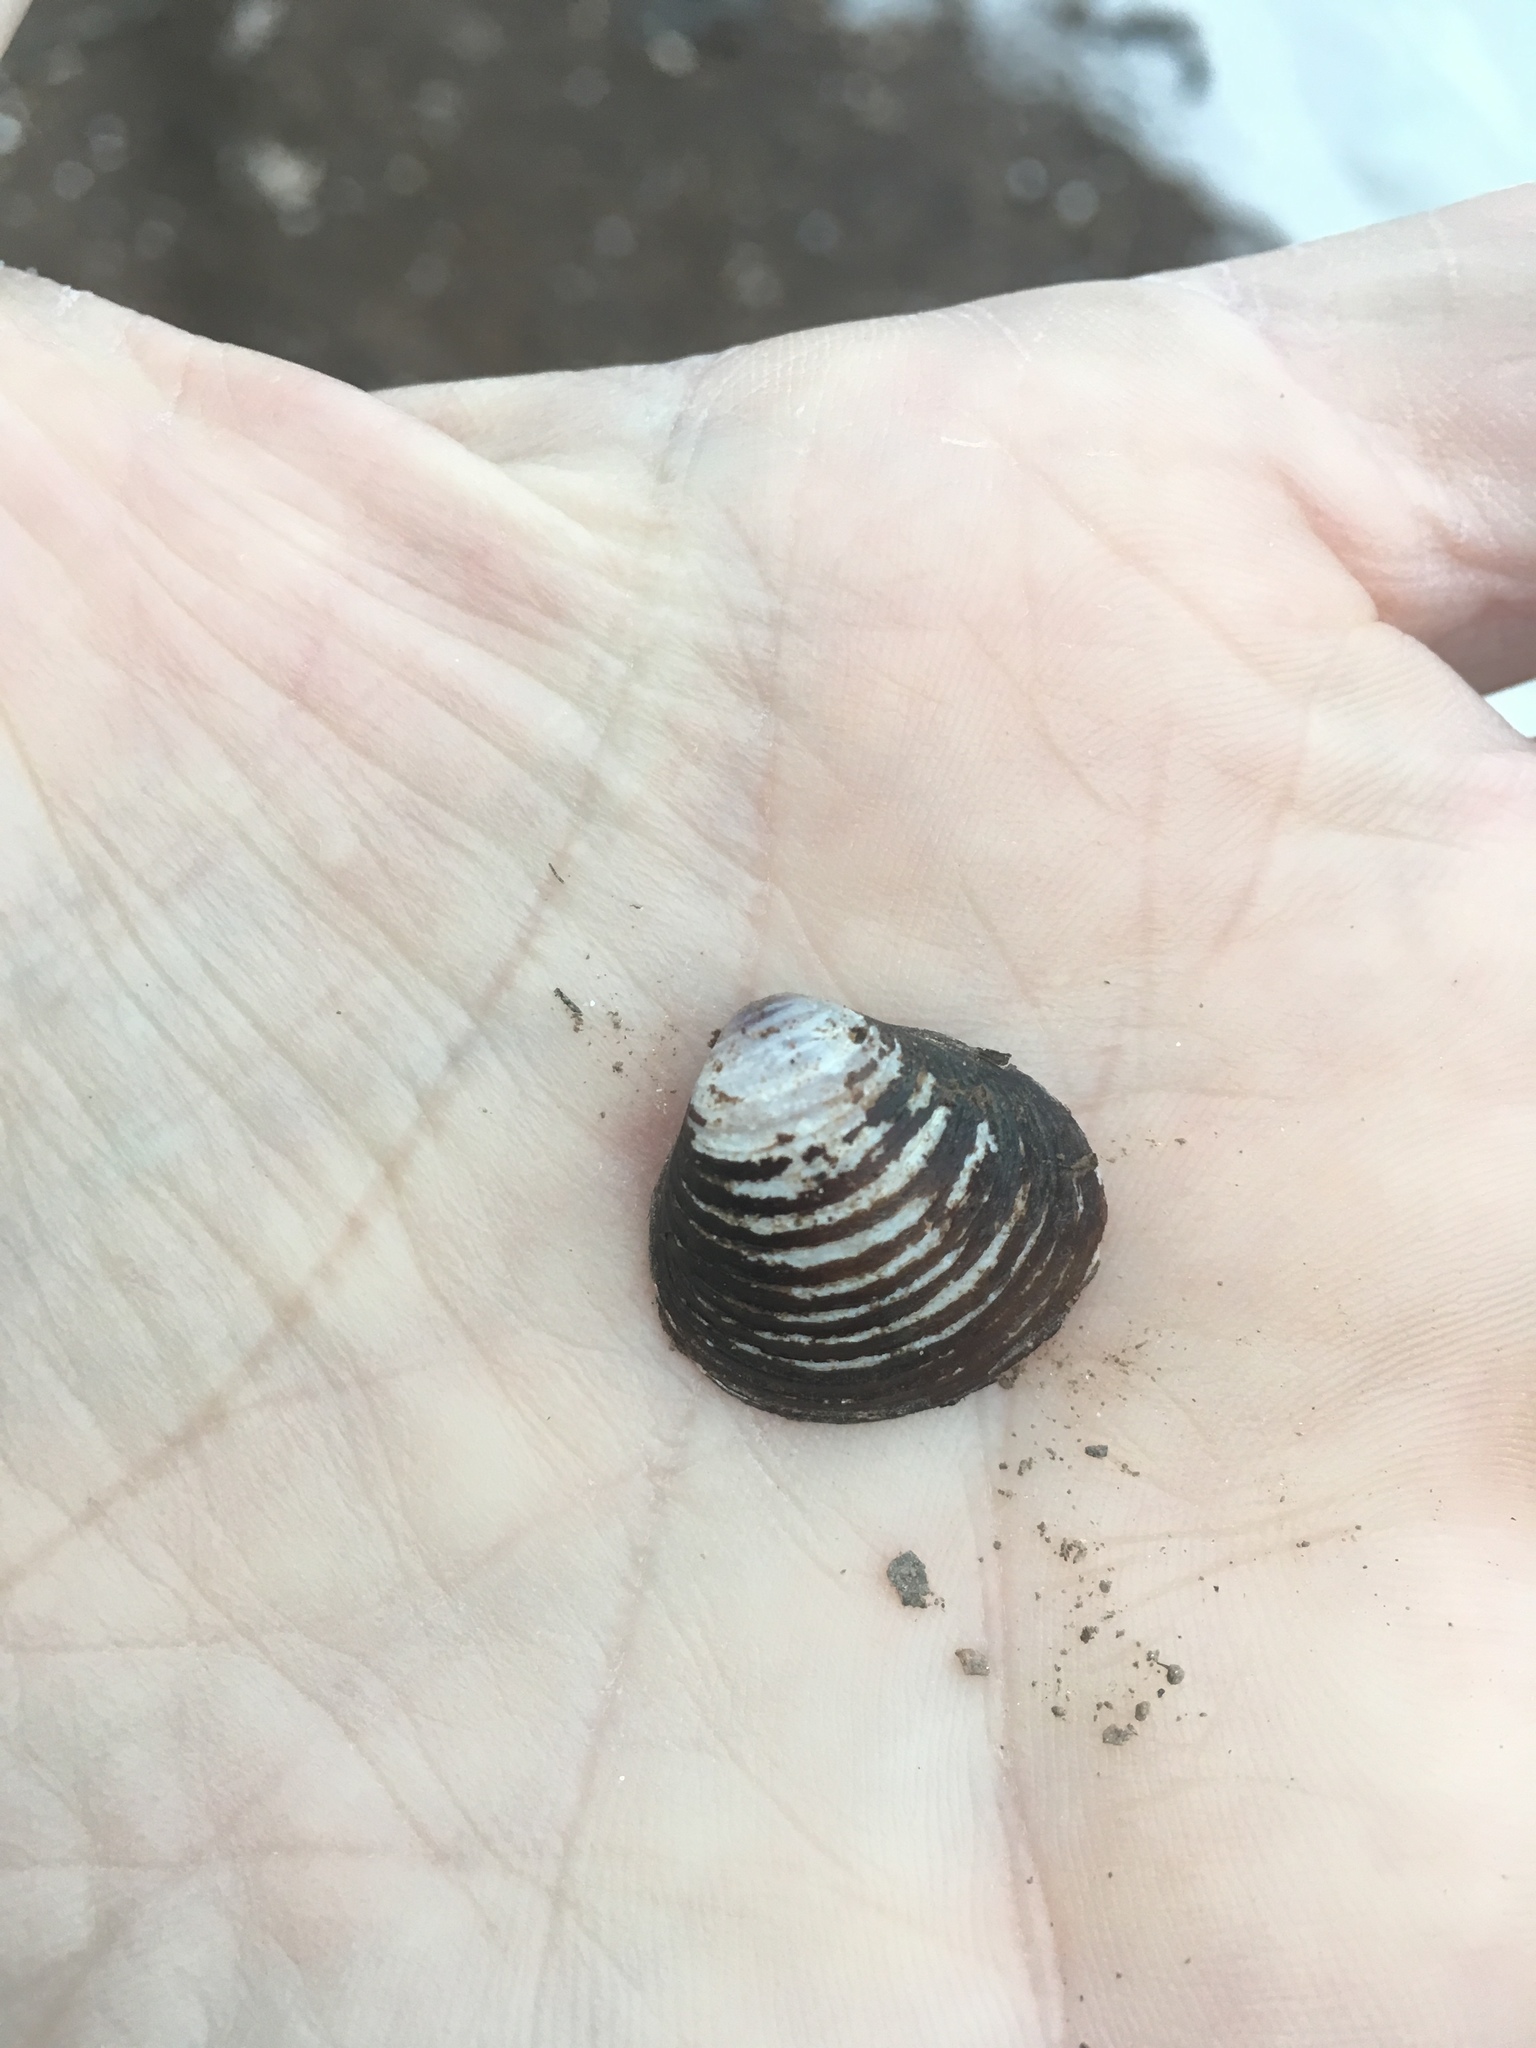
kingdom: Animalia
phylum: Mollusca
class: Bivalvia
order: Venerida
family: Cyrenidae
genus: Corbicula
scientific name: Corbicula fluminea
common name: Asian clam
